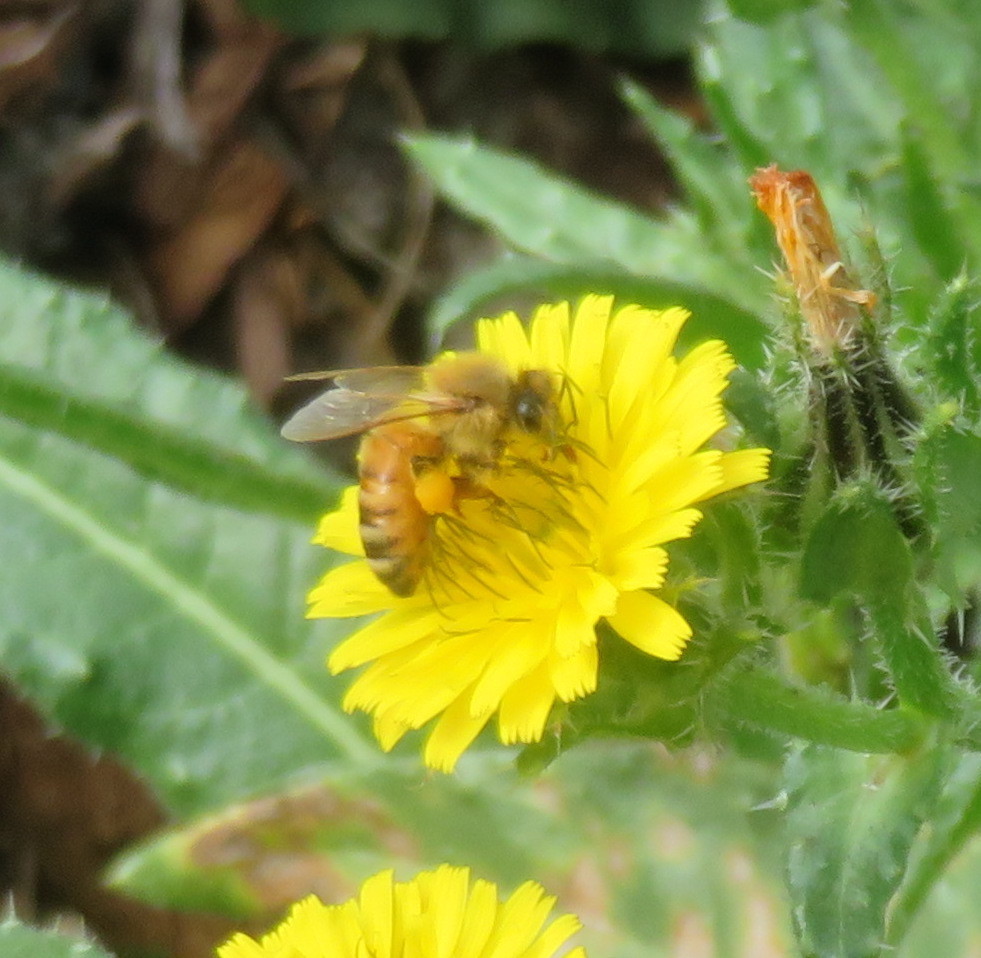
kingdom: Animalia
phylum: Arthropoda
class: Insecta
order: Hymenoptera
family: Apidae
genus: Apis
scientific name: Apis mellifera
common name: Honey bee
